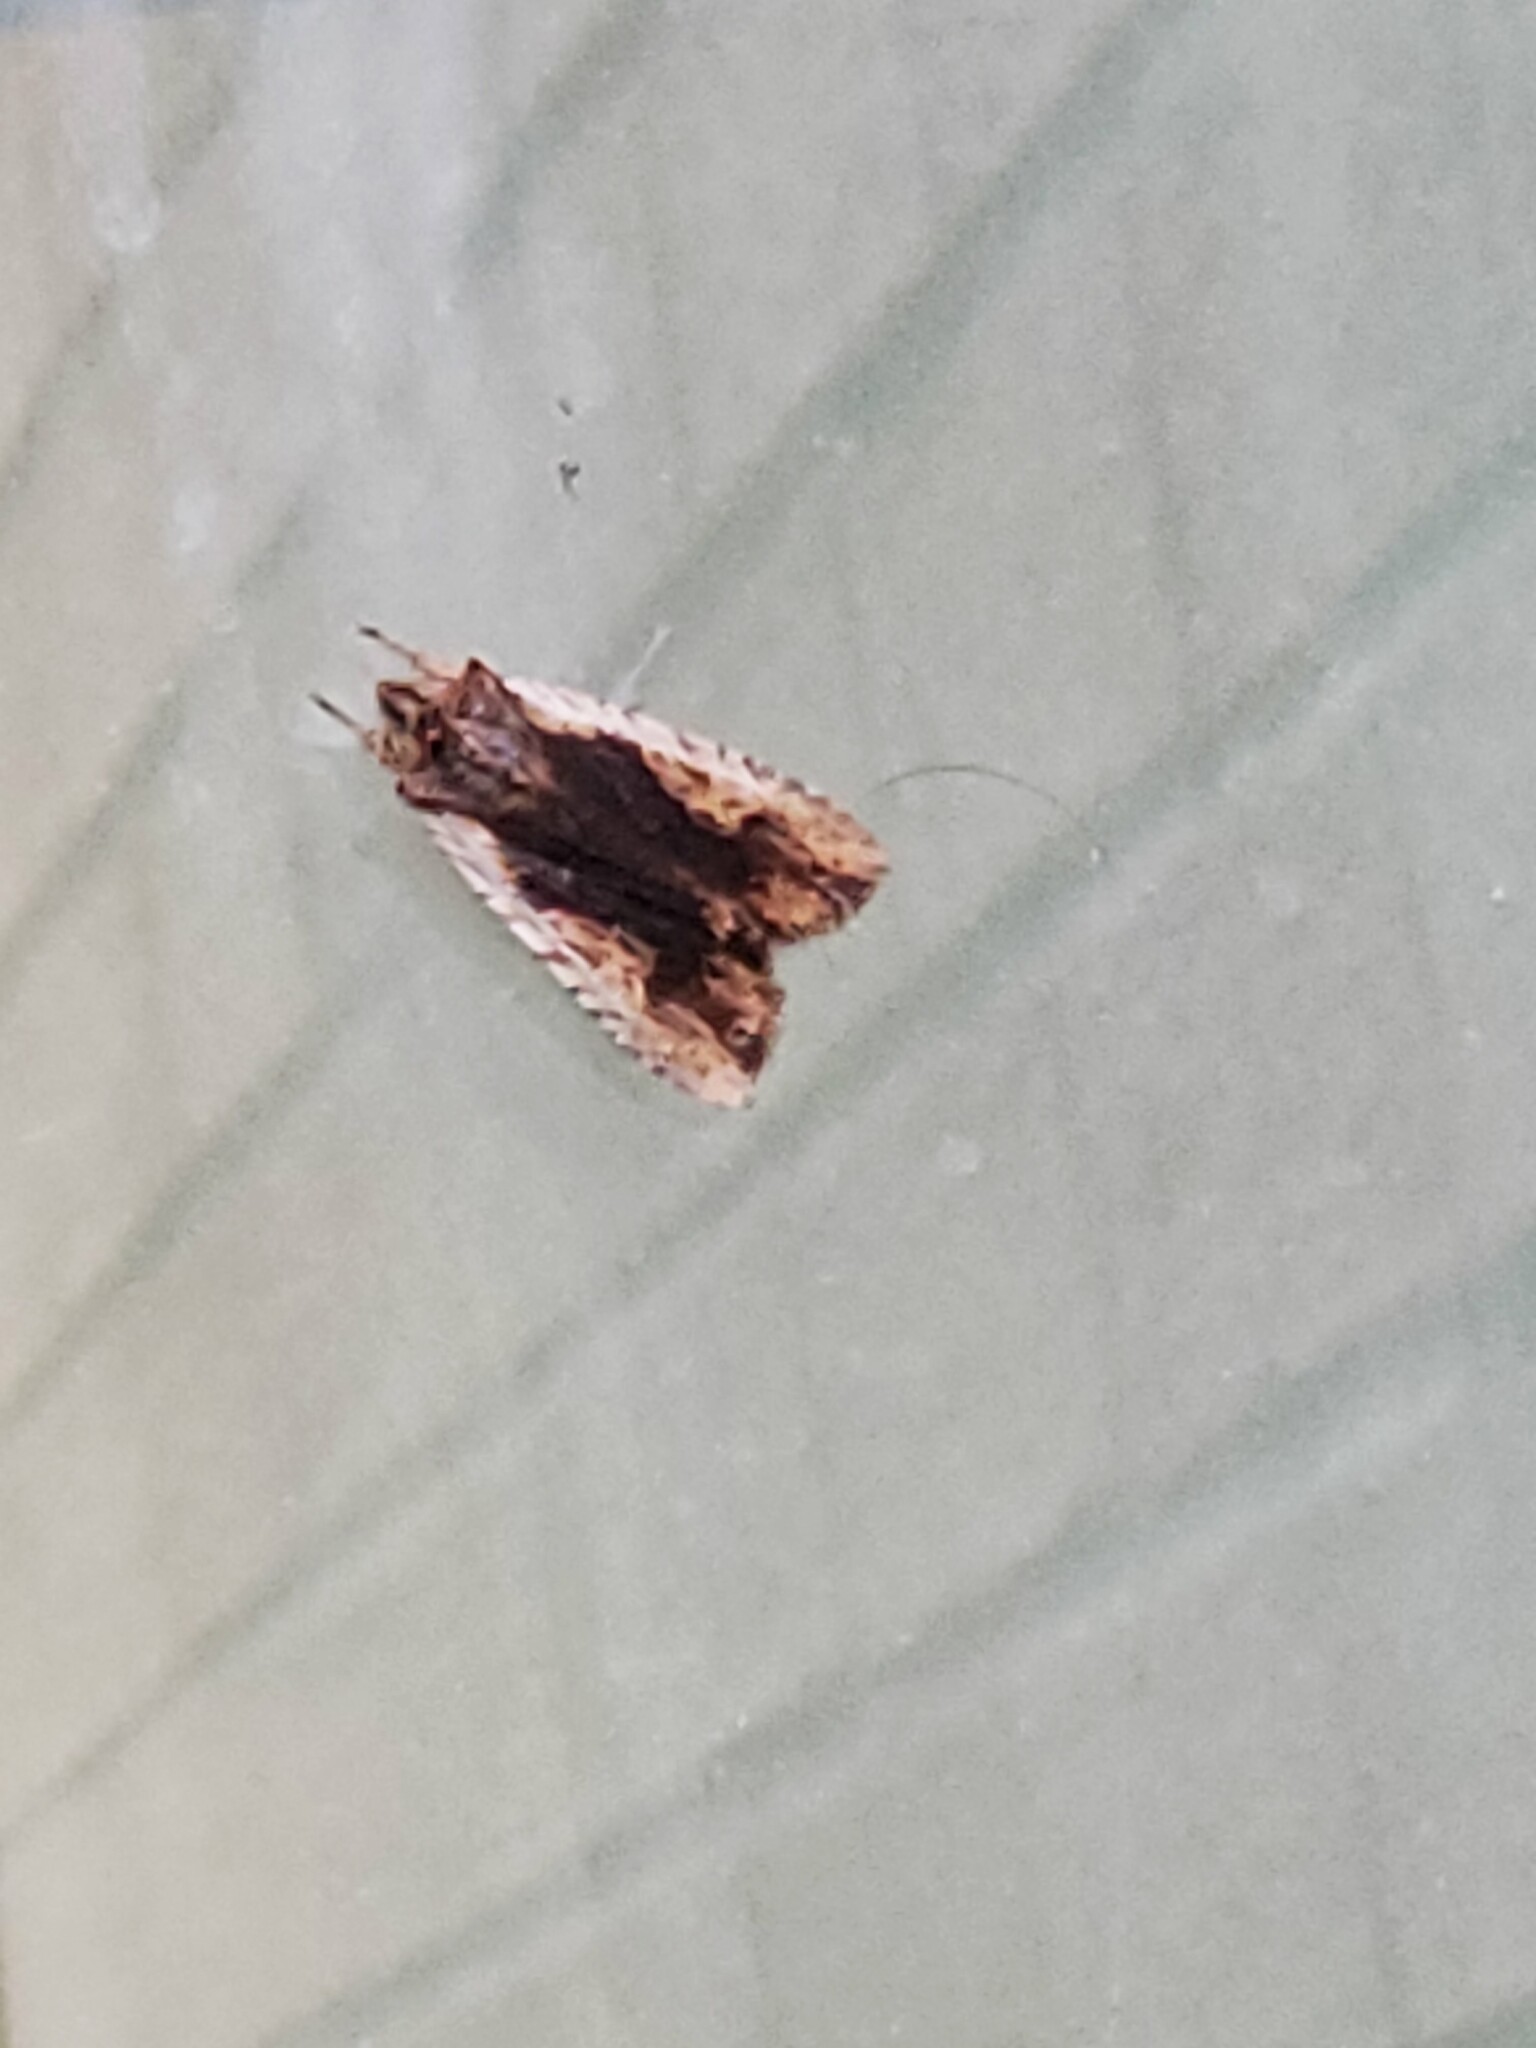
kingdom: Animalia
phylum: Arthropoda
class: Insecta
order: Lepidoptera
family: Noctuidae
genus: Lithophane
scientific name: Lithophane petulca
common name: Wanton pinion
